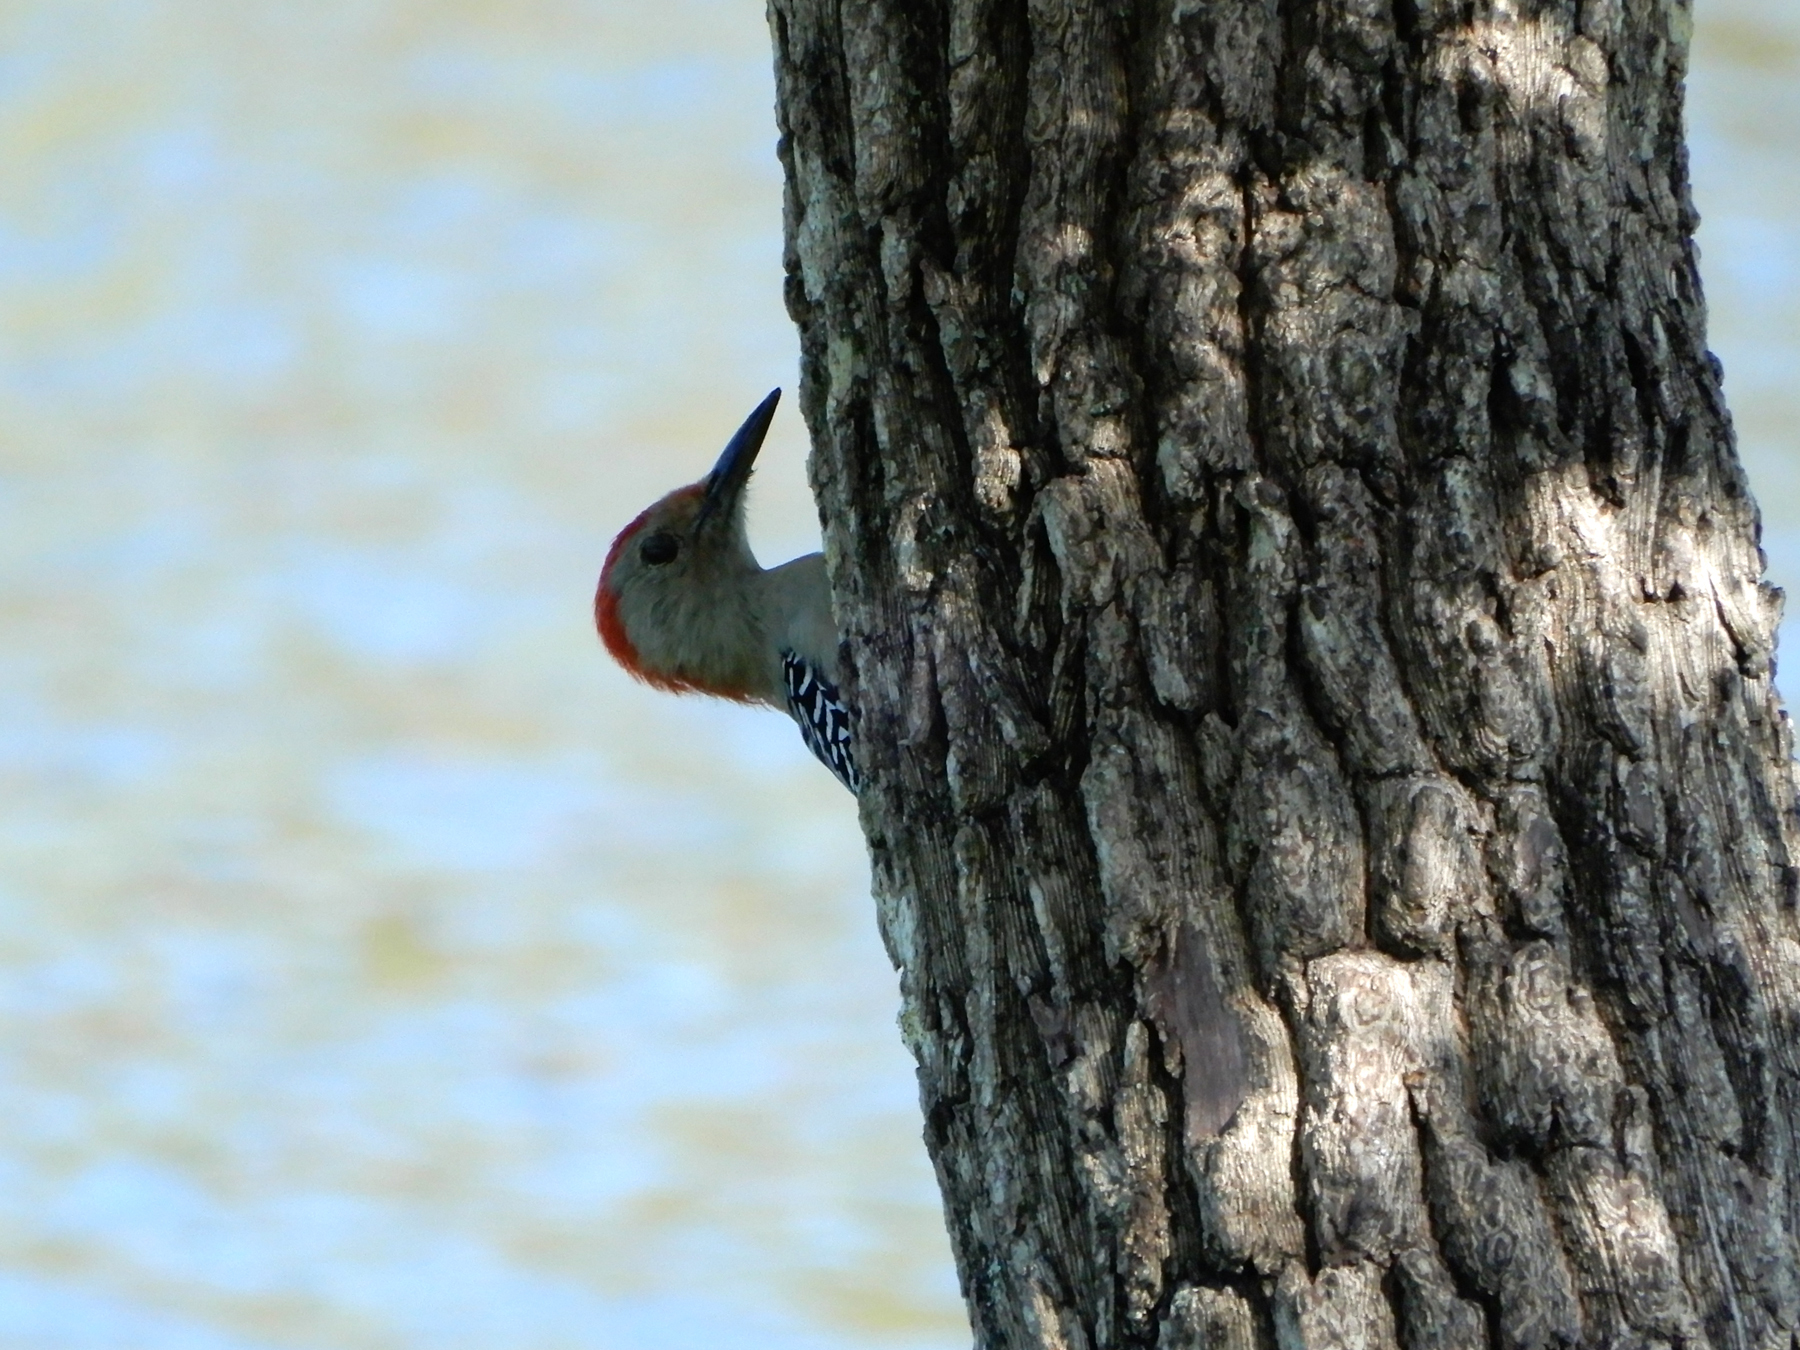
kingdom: Animalia
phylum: Chordata
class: Aves
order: Piciformes
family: Picidae
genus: Melanerpes
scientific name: Melanerpes carolinus
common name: Red-bellied woodpecker
